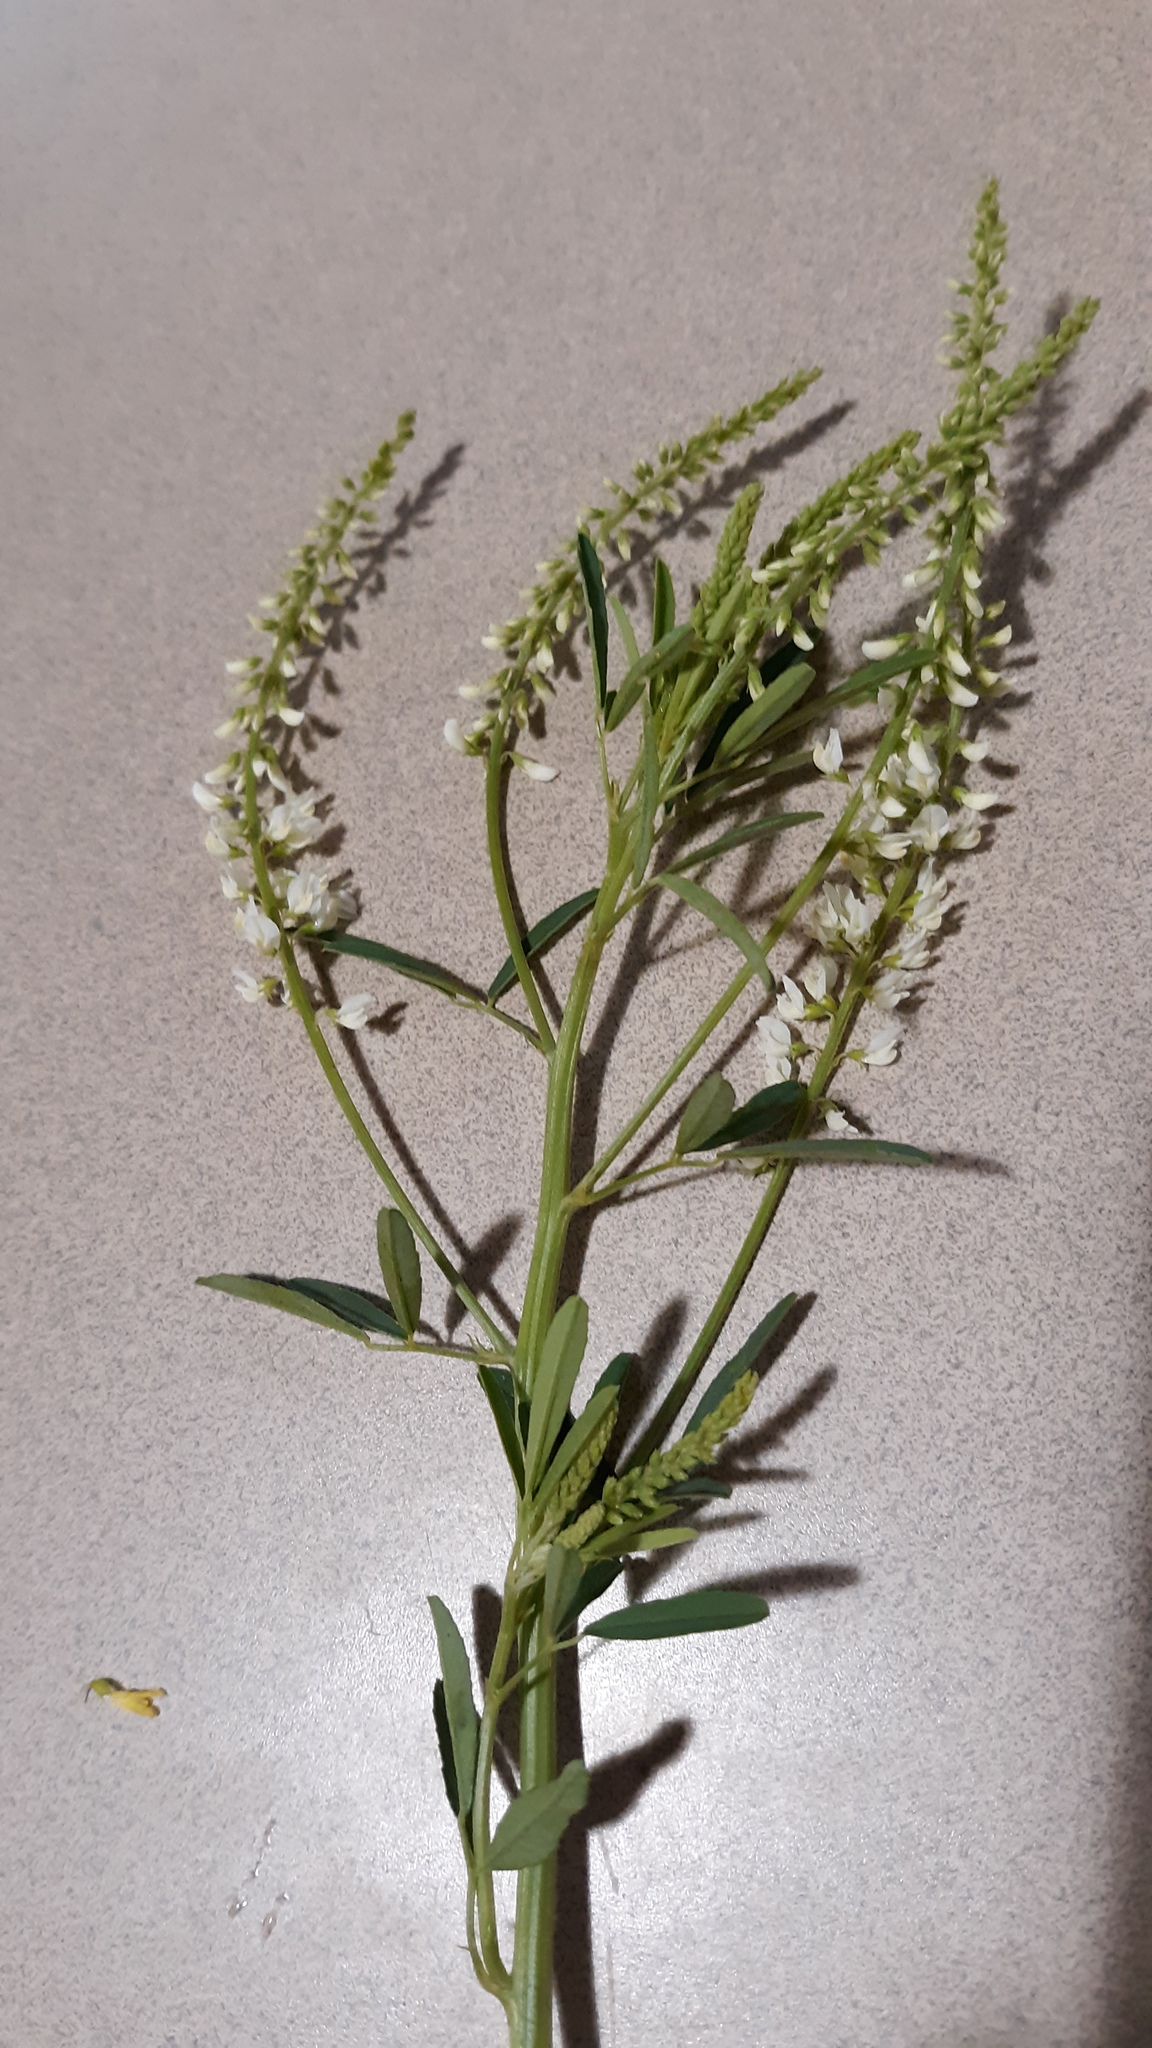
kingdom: Plantae
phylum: Tracheophyta
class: Magnoliopsida
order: Fabales
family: Fabaceae
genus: Melilotus
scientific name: Melilotus albus
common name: White melilot
